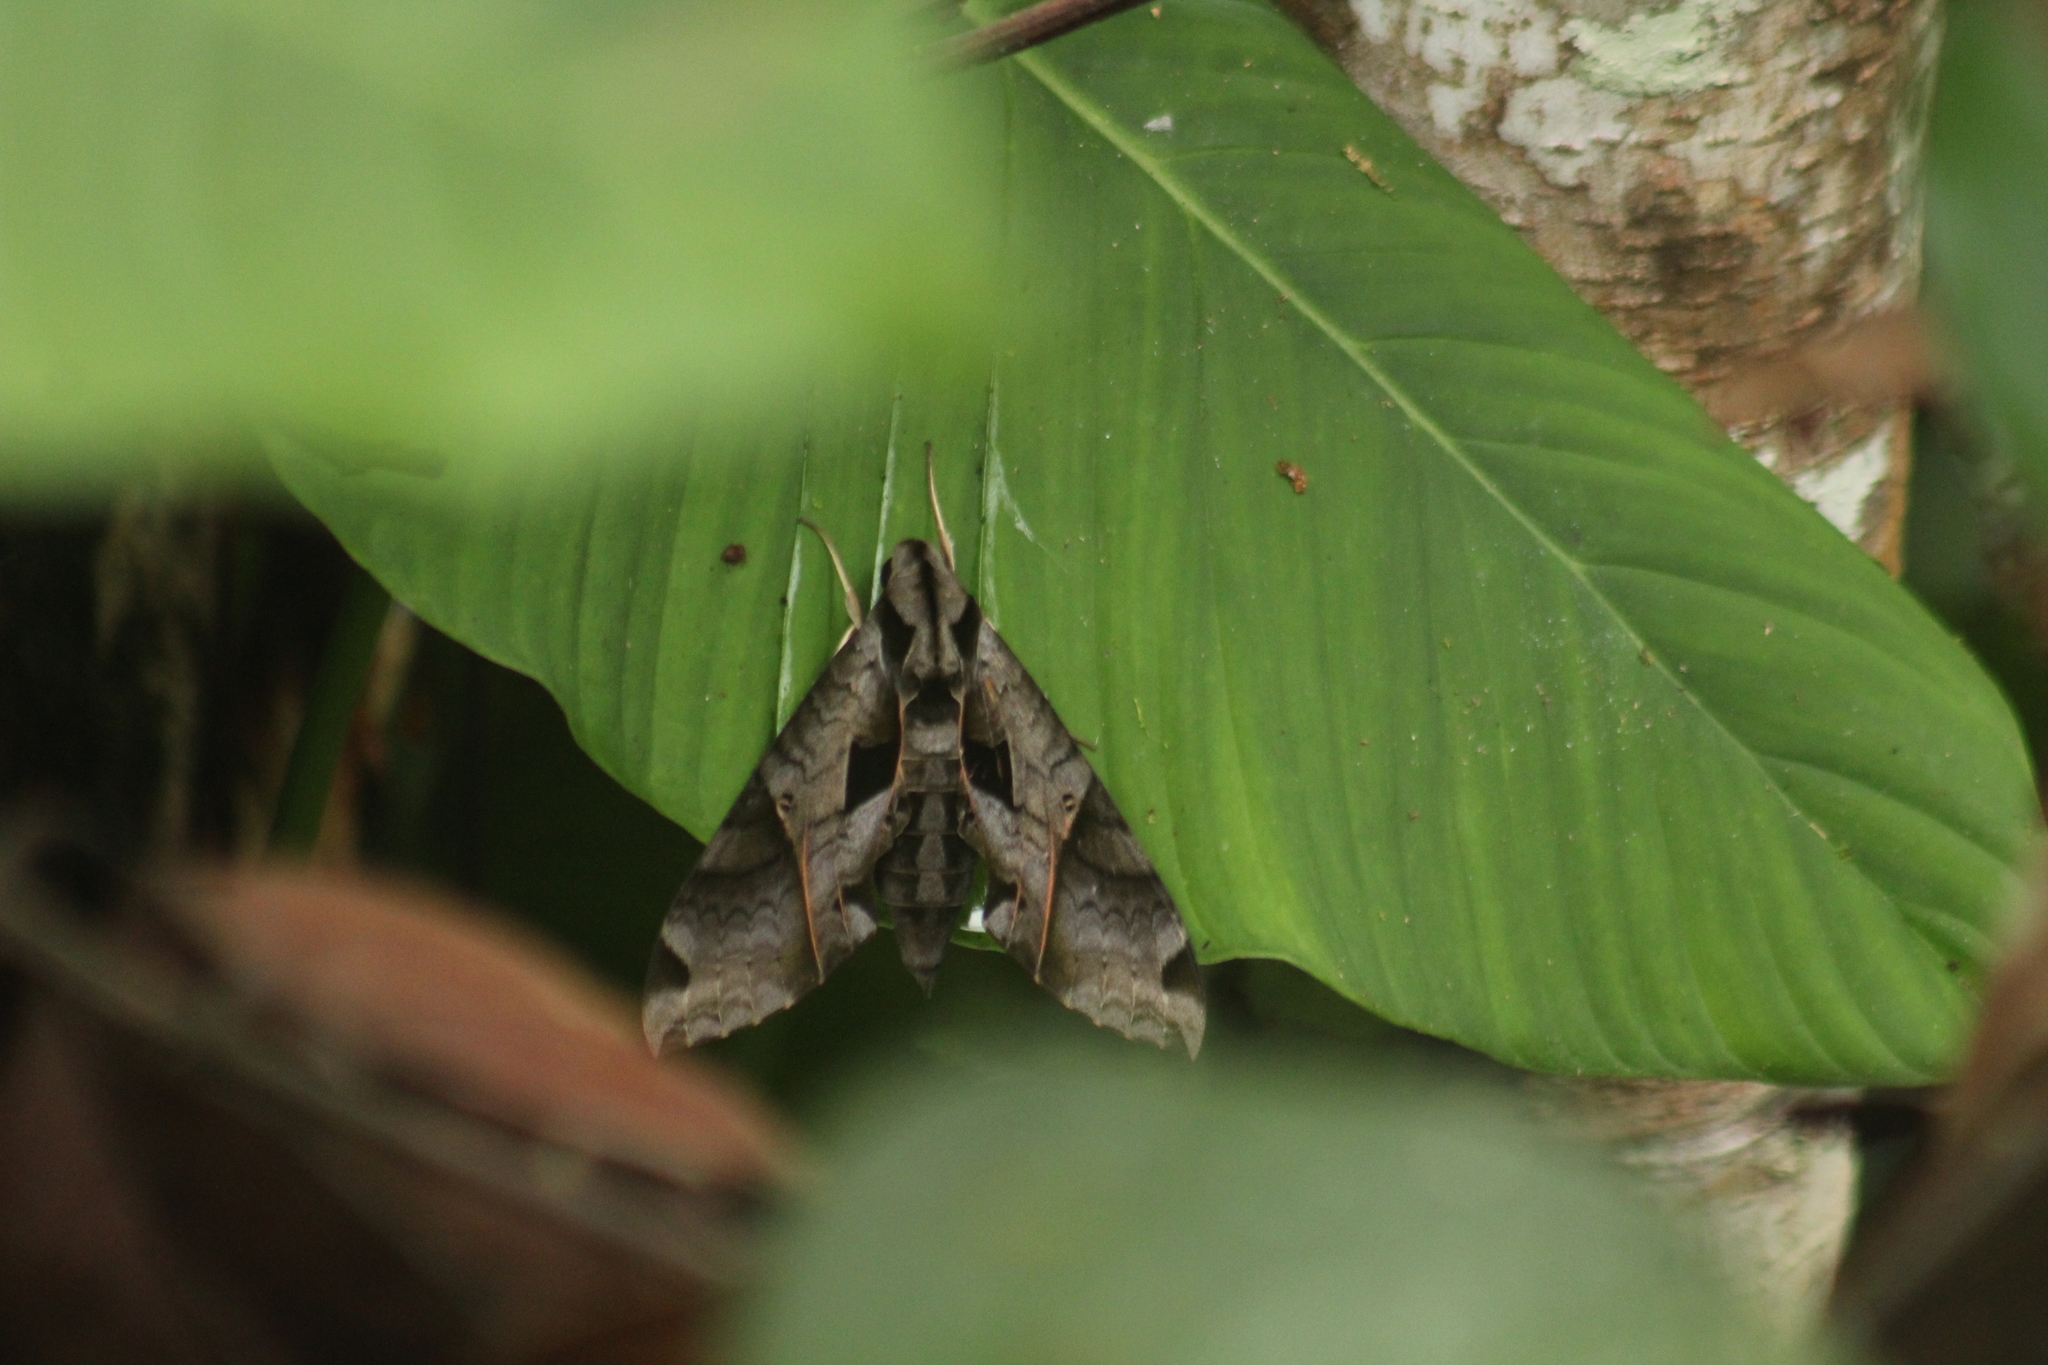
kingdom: Animalia
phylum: Arthropoda
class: Insecta
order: Lepidoptera
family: Sphingidae
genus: Eumorpha
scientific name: Eumorpha analis
